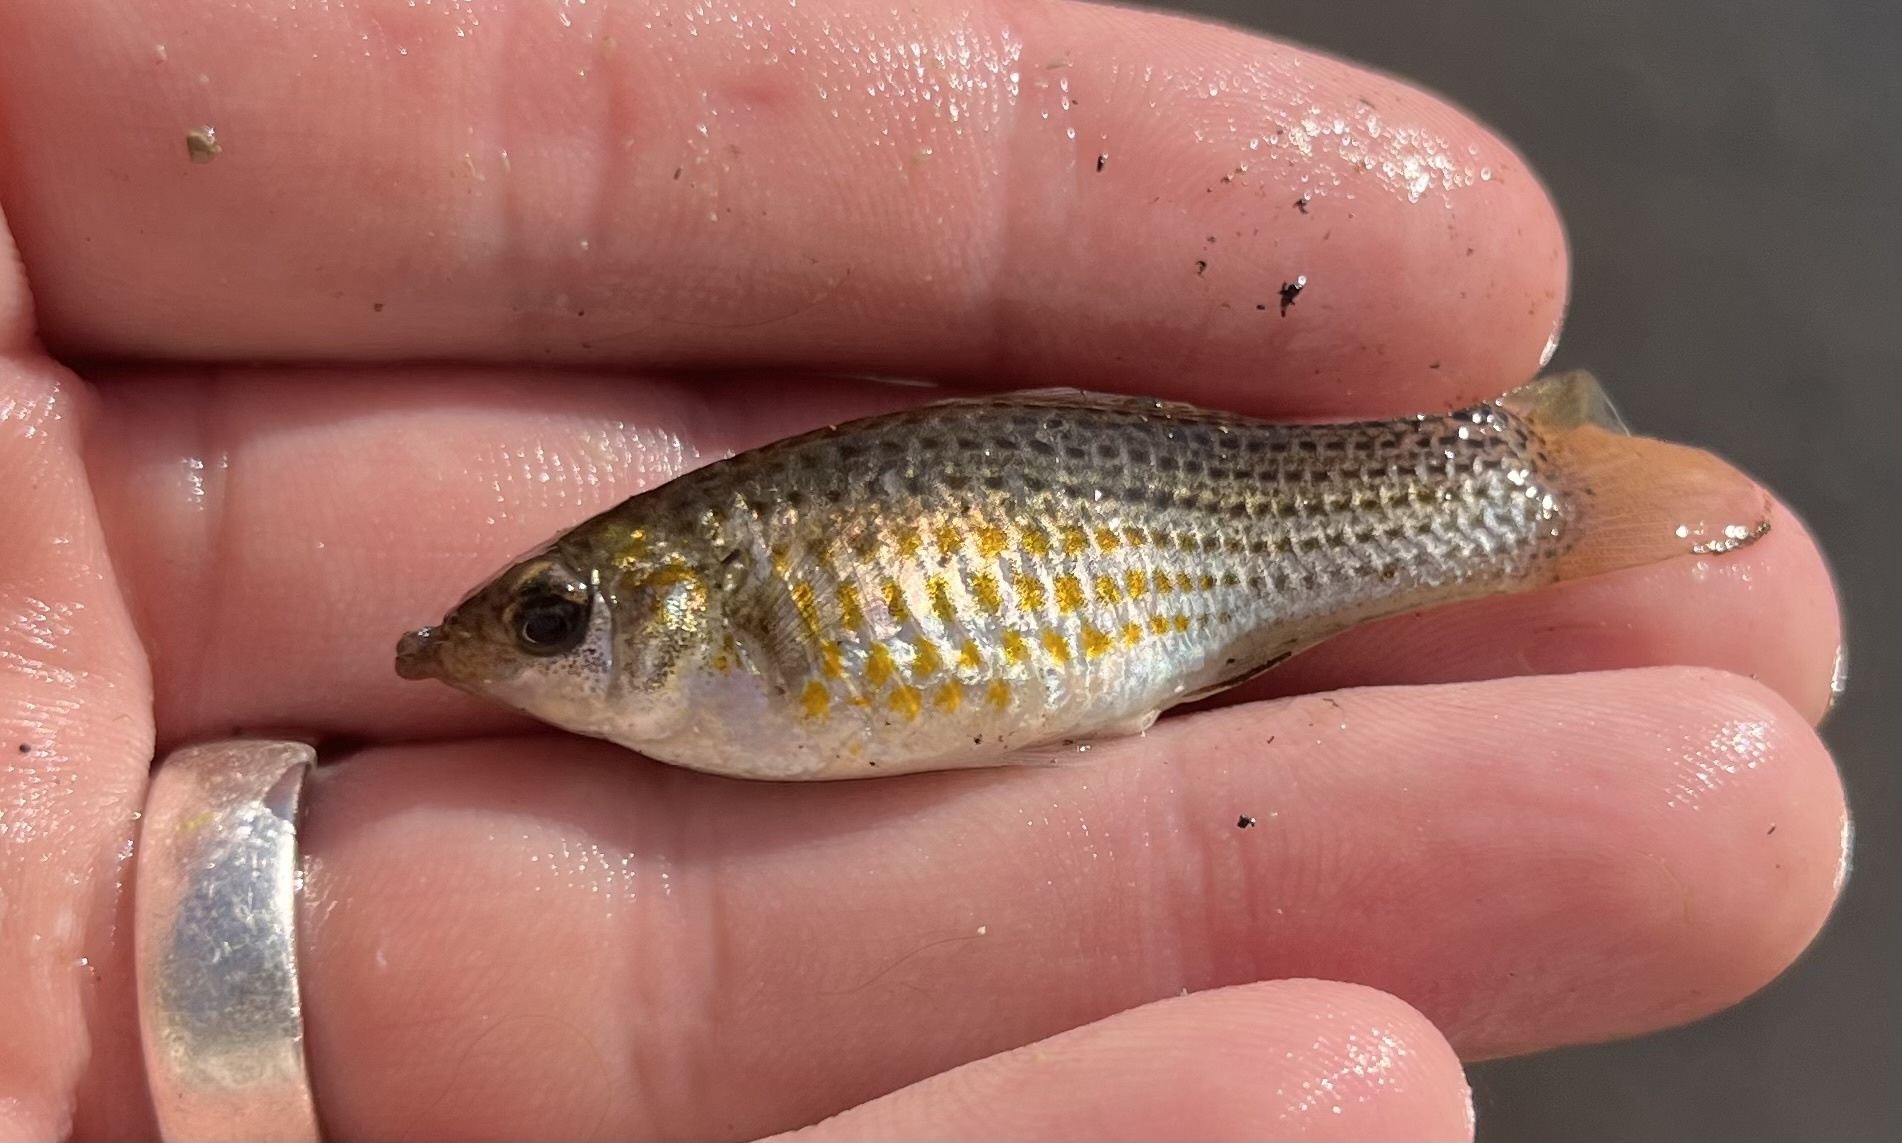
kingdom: Animalia
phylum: Chordata
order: Cyprinodontiformes
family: Poeciliidae
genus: Poecilia
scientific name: Poecilia latipinna
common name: Sailfin molly
